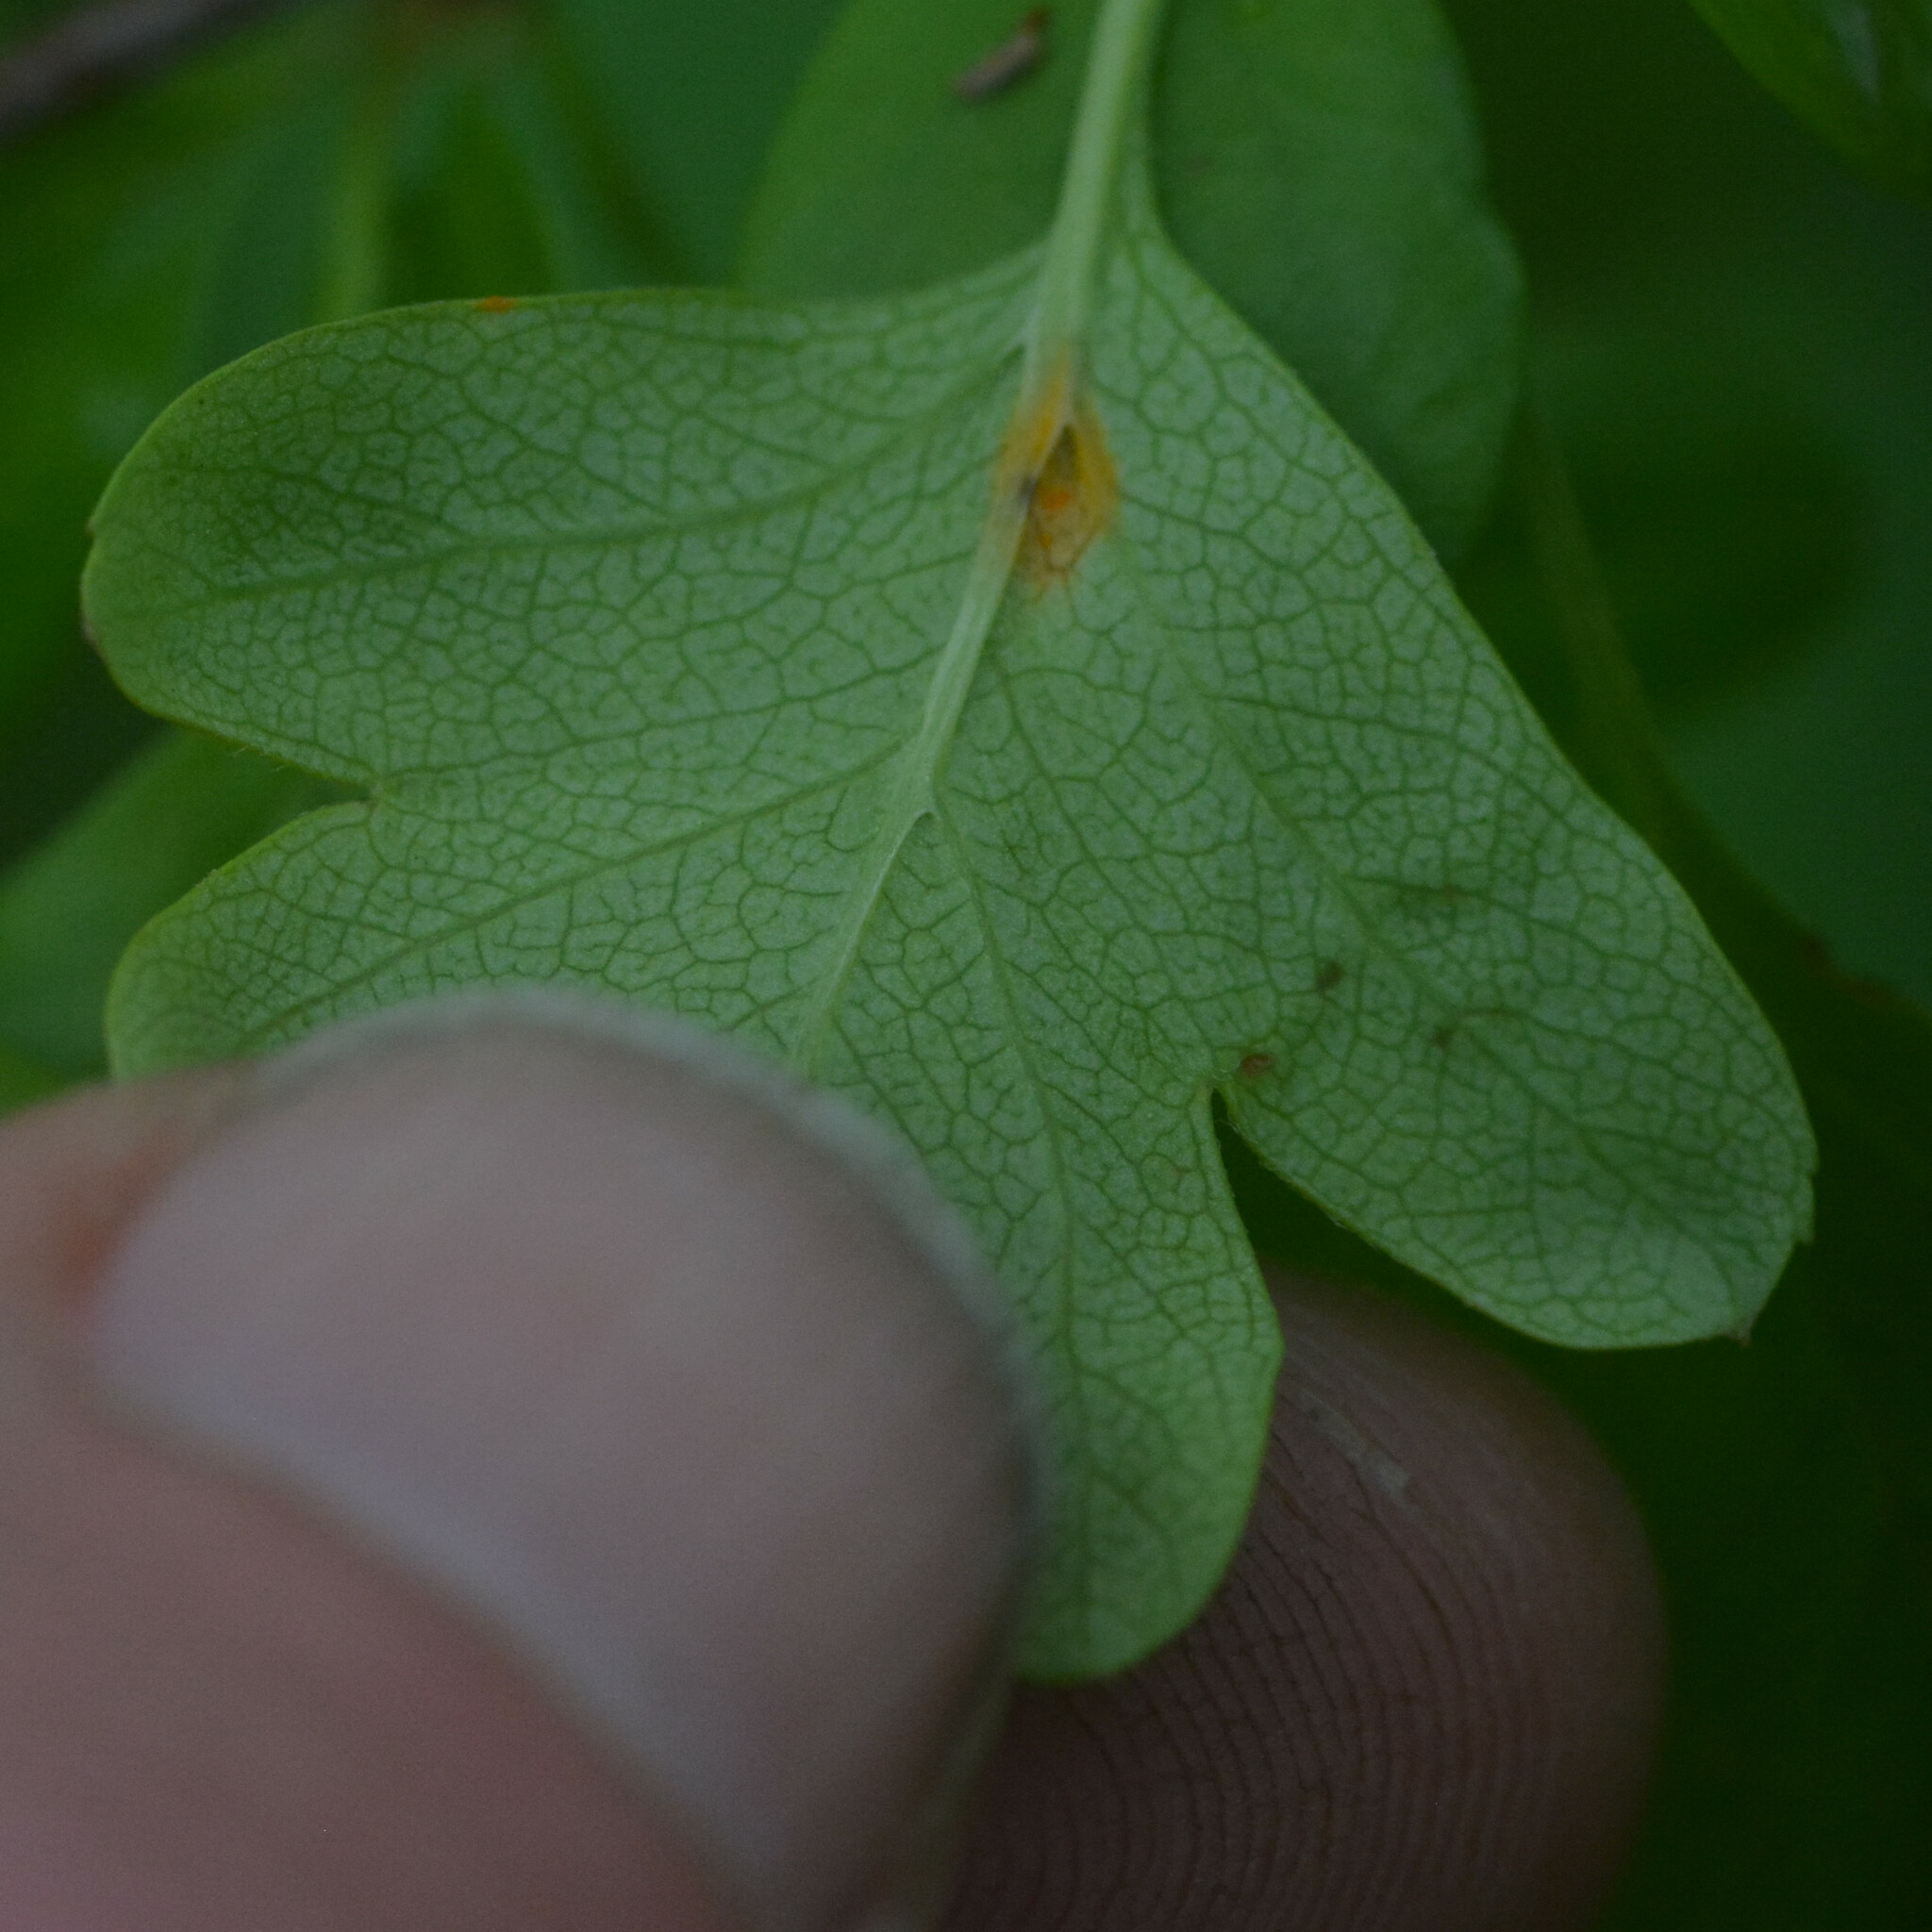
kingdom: Fungi
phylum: Basidiomycota
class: Pucciniomycetes
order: Pucciniales
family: Gymnosporangiaceae
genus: Gymnosporangium
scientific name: Gymnosporangium
